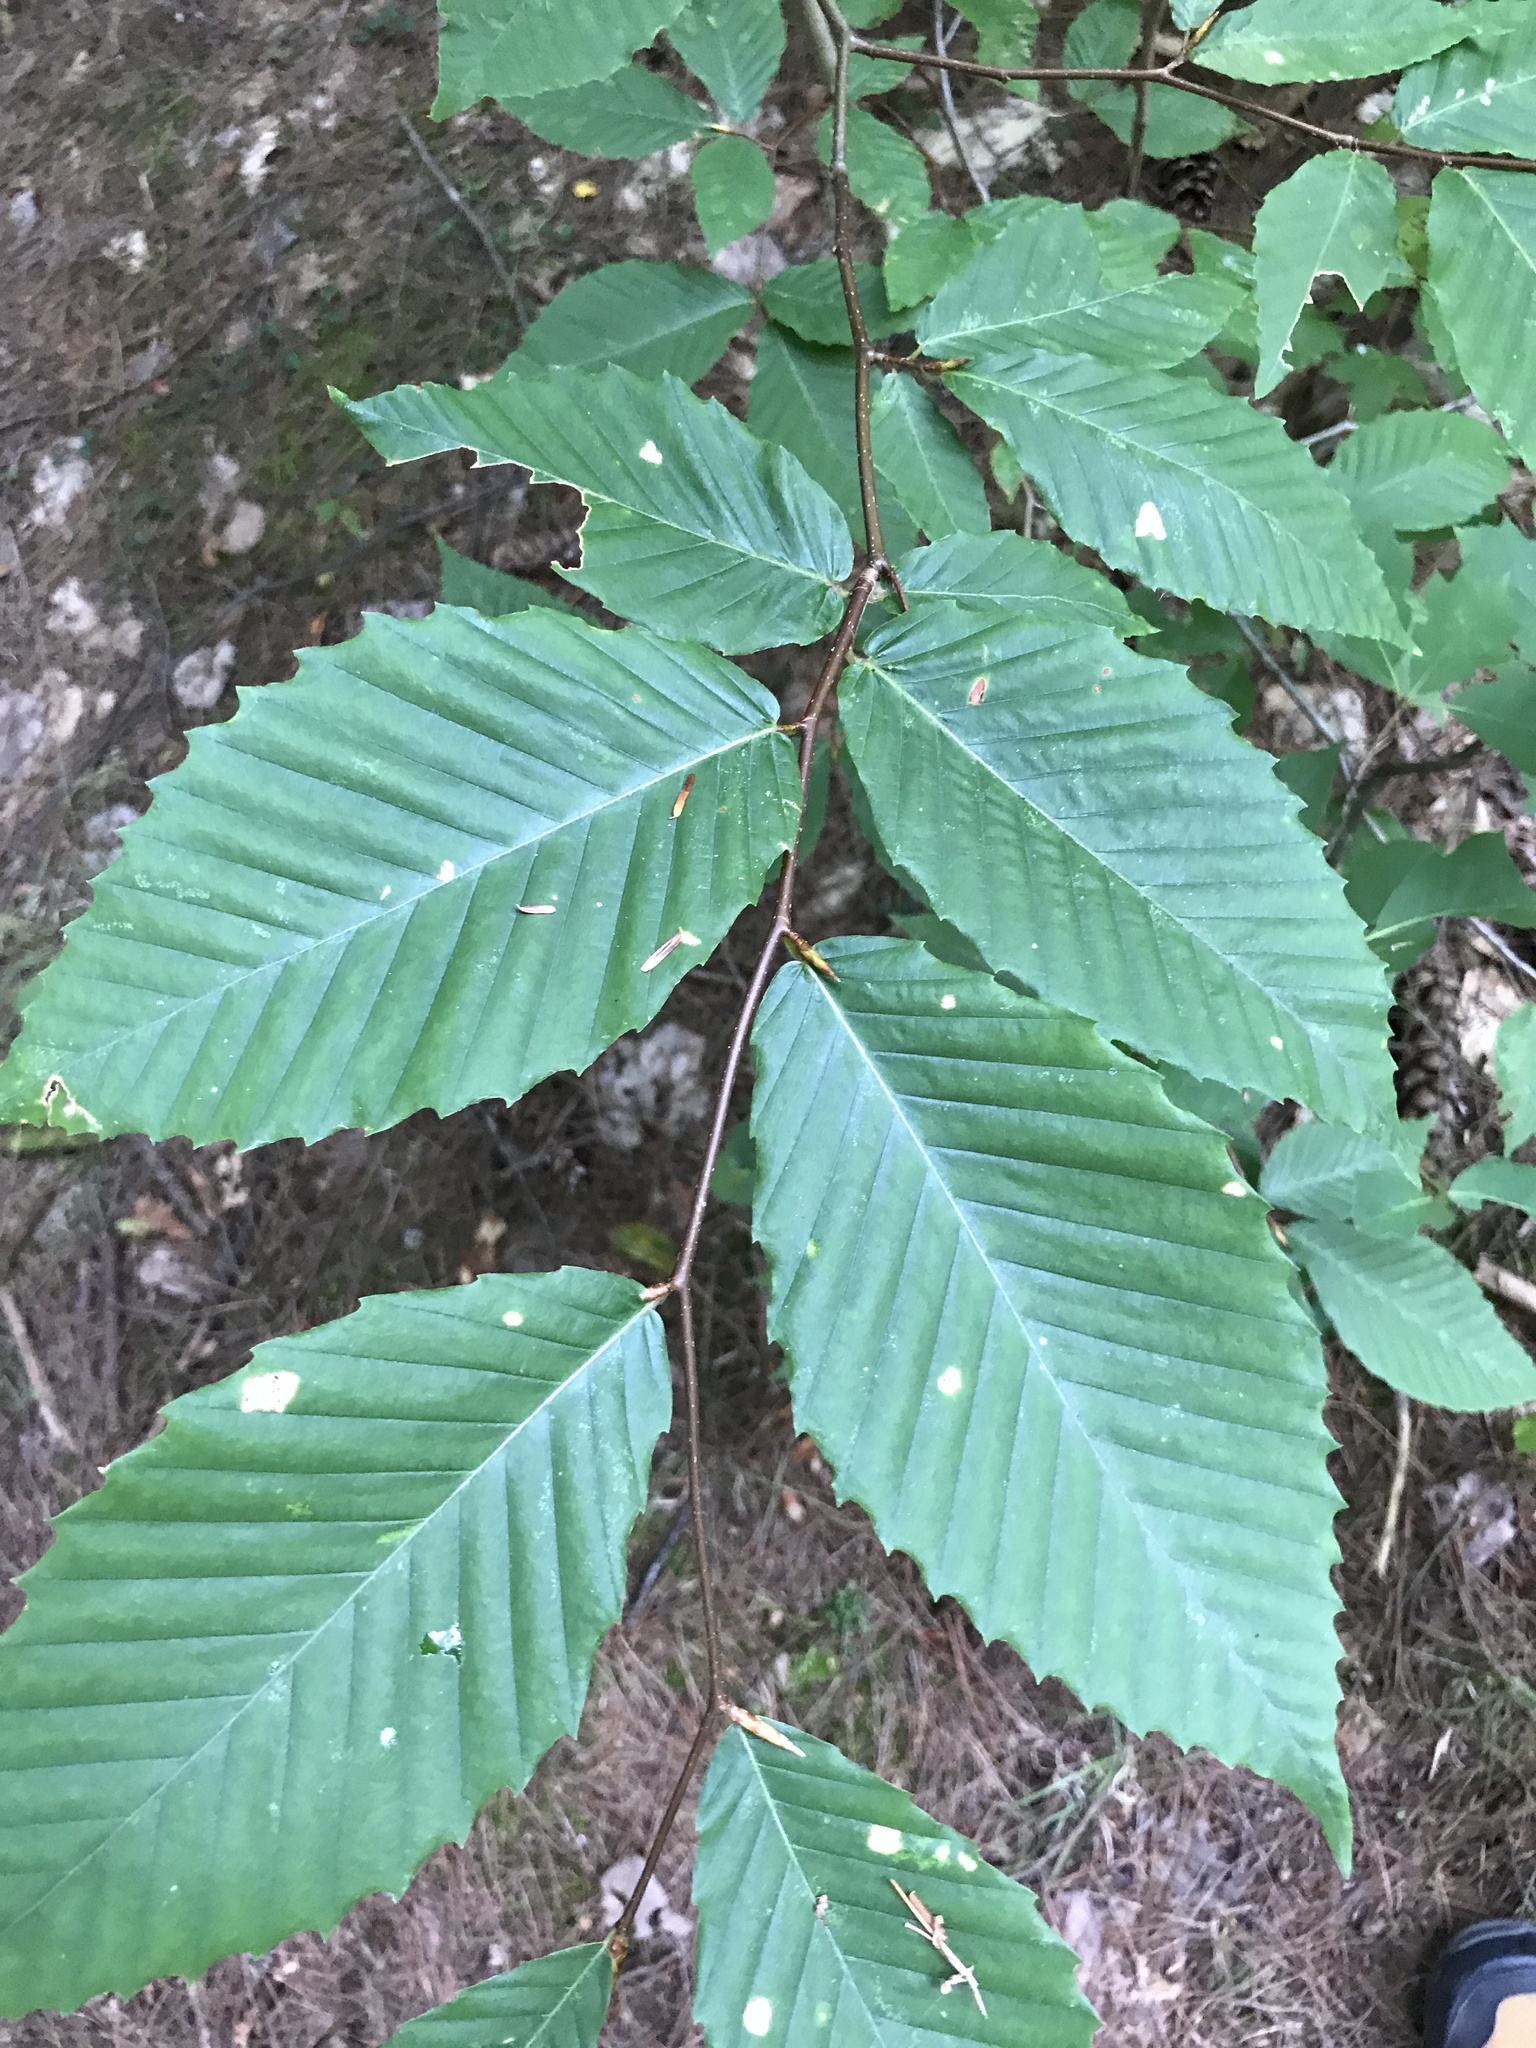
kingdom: Plantae
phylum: Tracheophyta
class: Magnoliopsida
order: Fagales
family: Fagaceae
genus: Fagus
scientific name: Fagus grandifolia
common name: American beech
